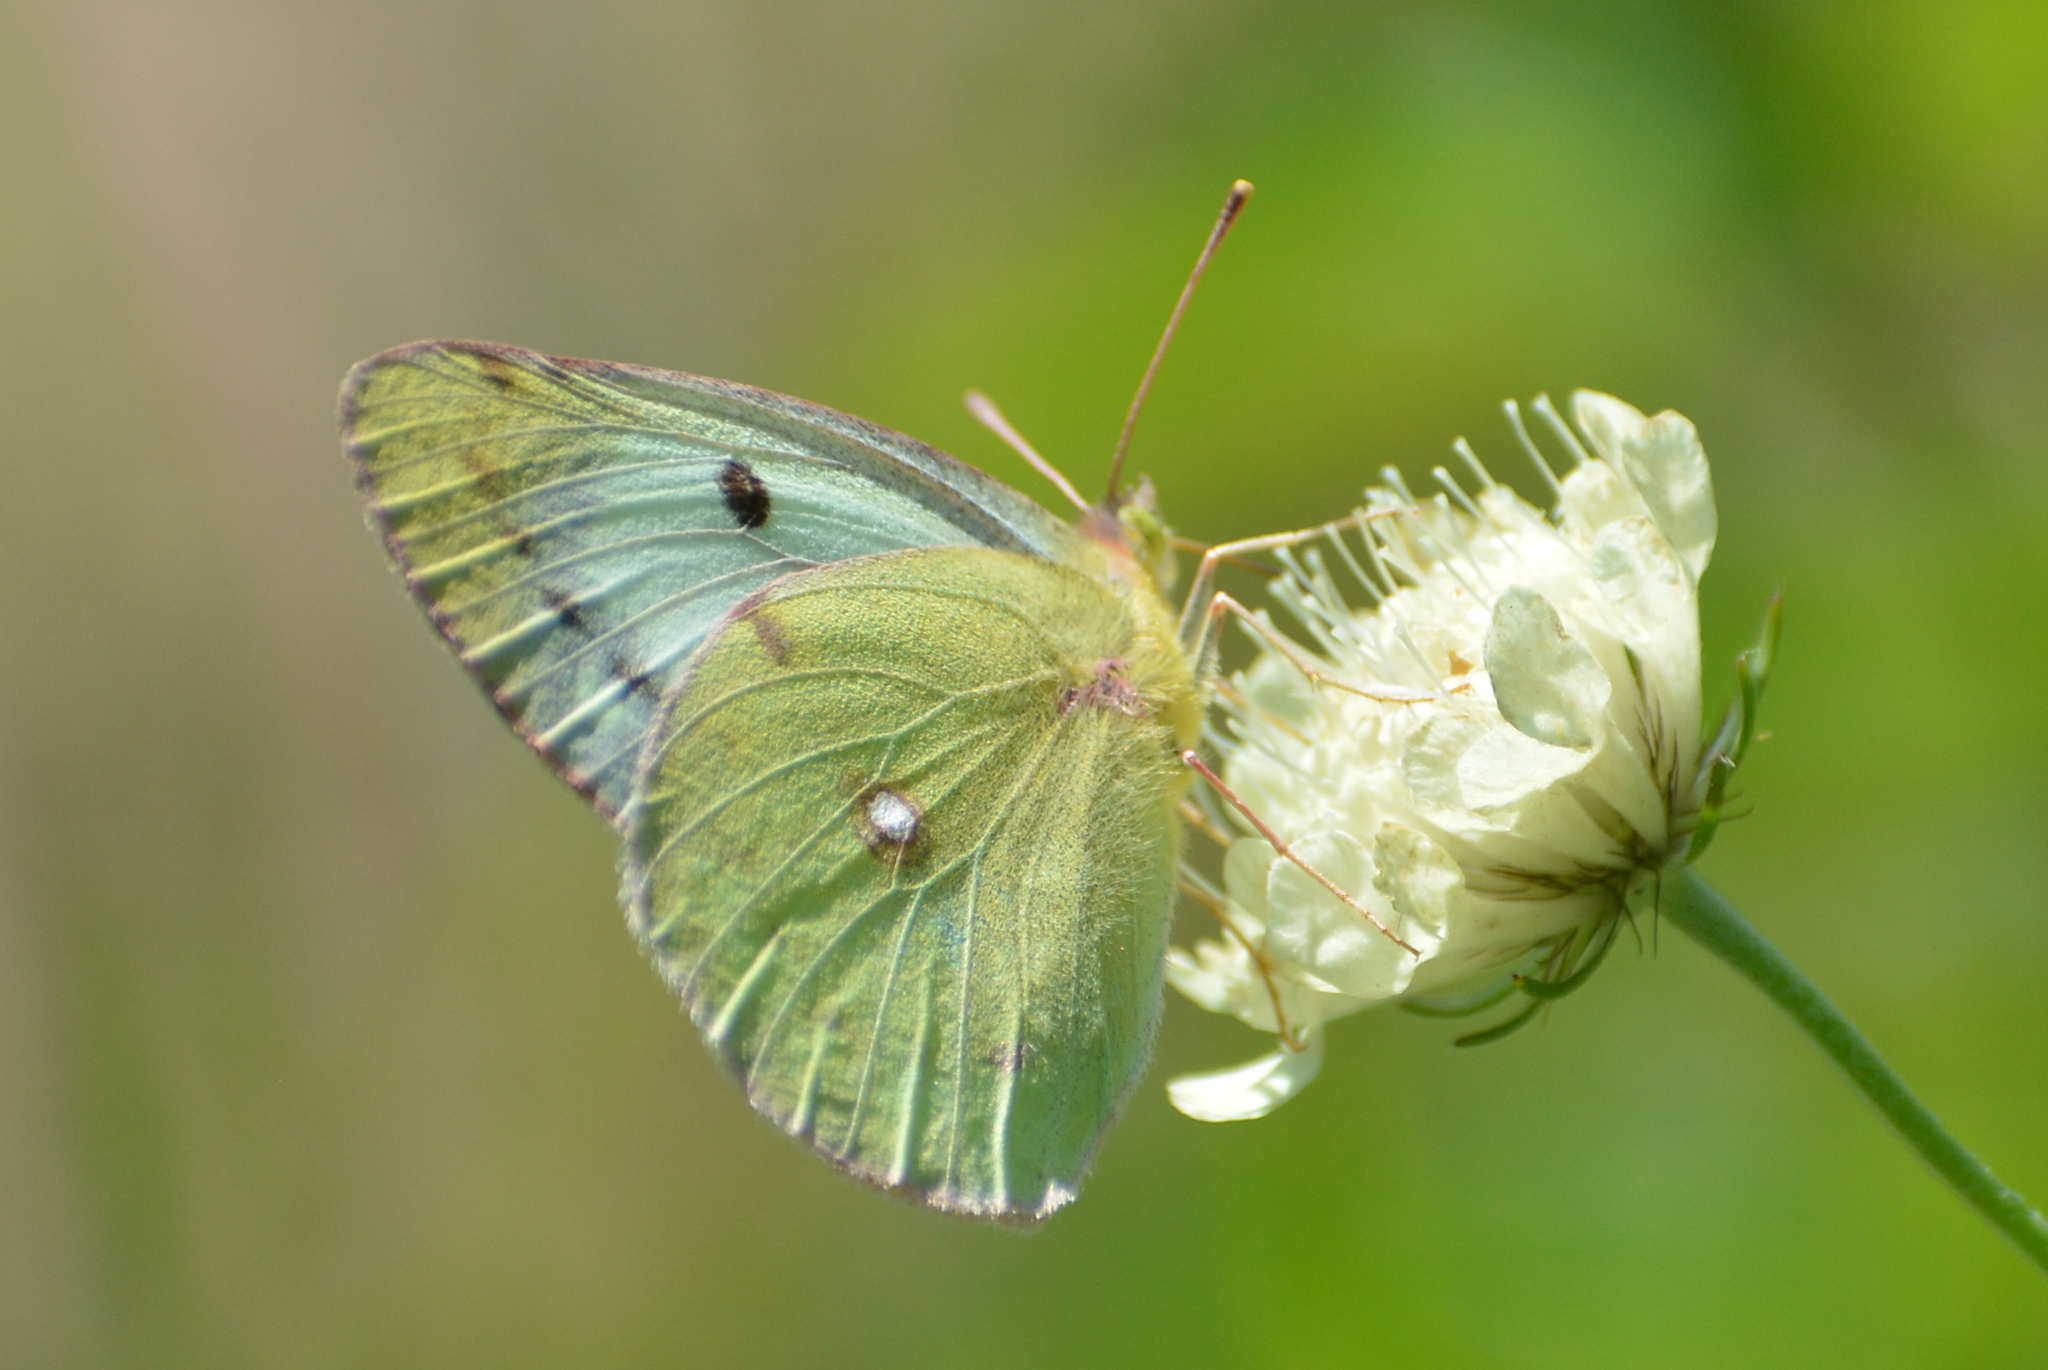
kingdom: Animalia
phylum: Arthropoda
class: Insecta
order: Lepidoptera
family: Pieridae
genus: Colias
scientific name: Colias alfacariensis
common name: Berger's clouded yellow
